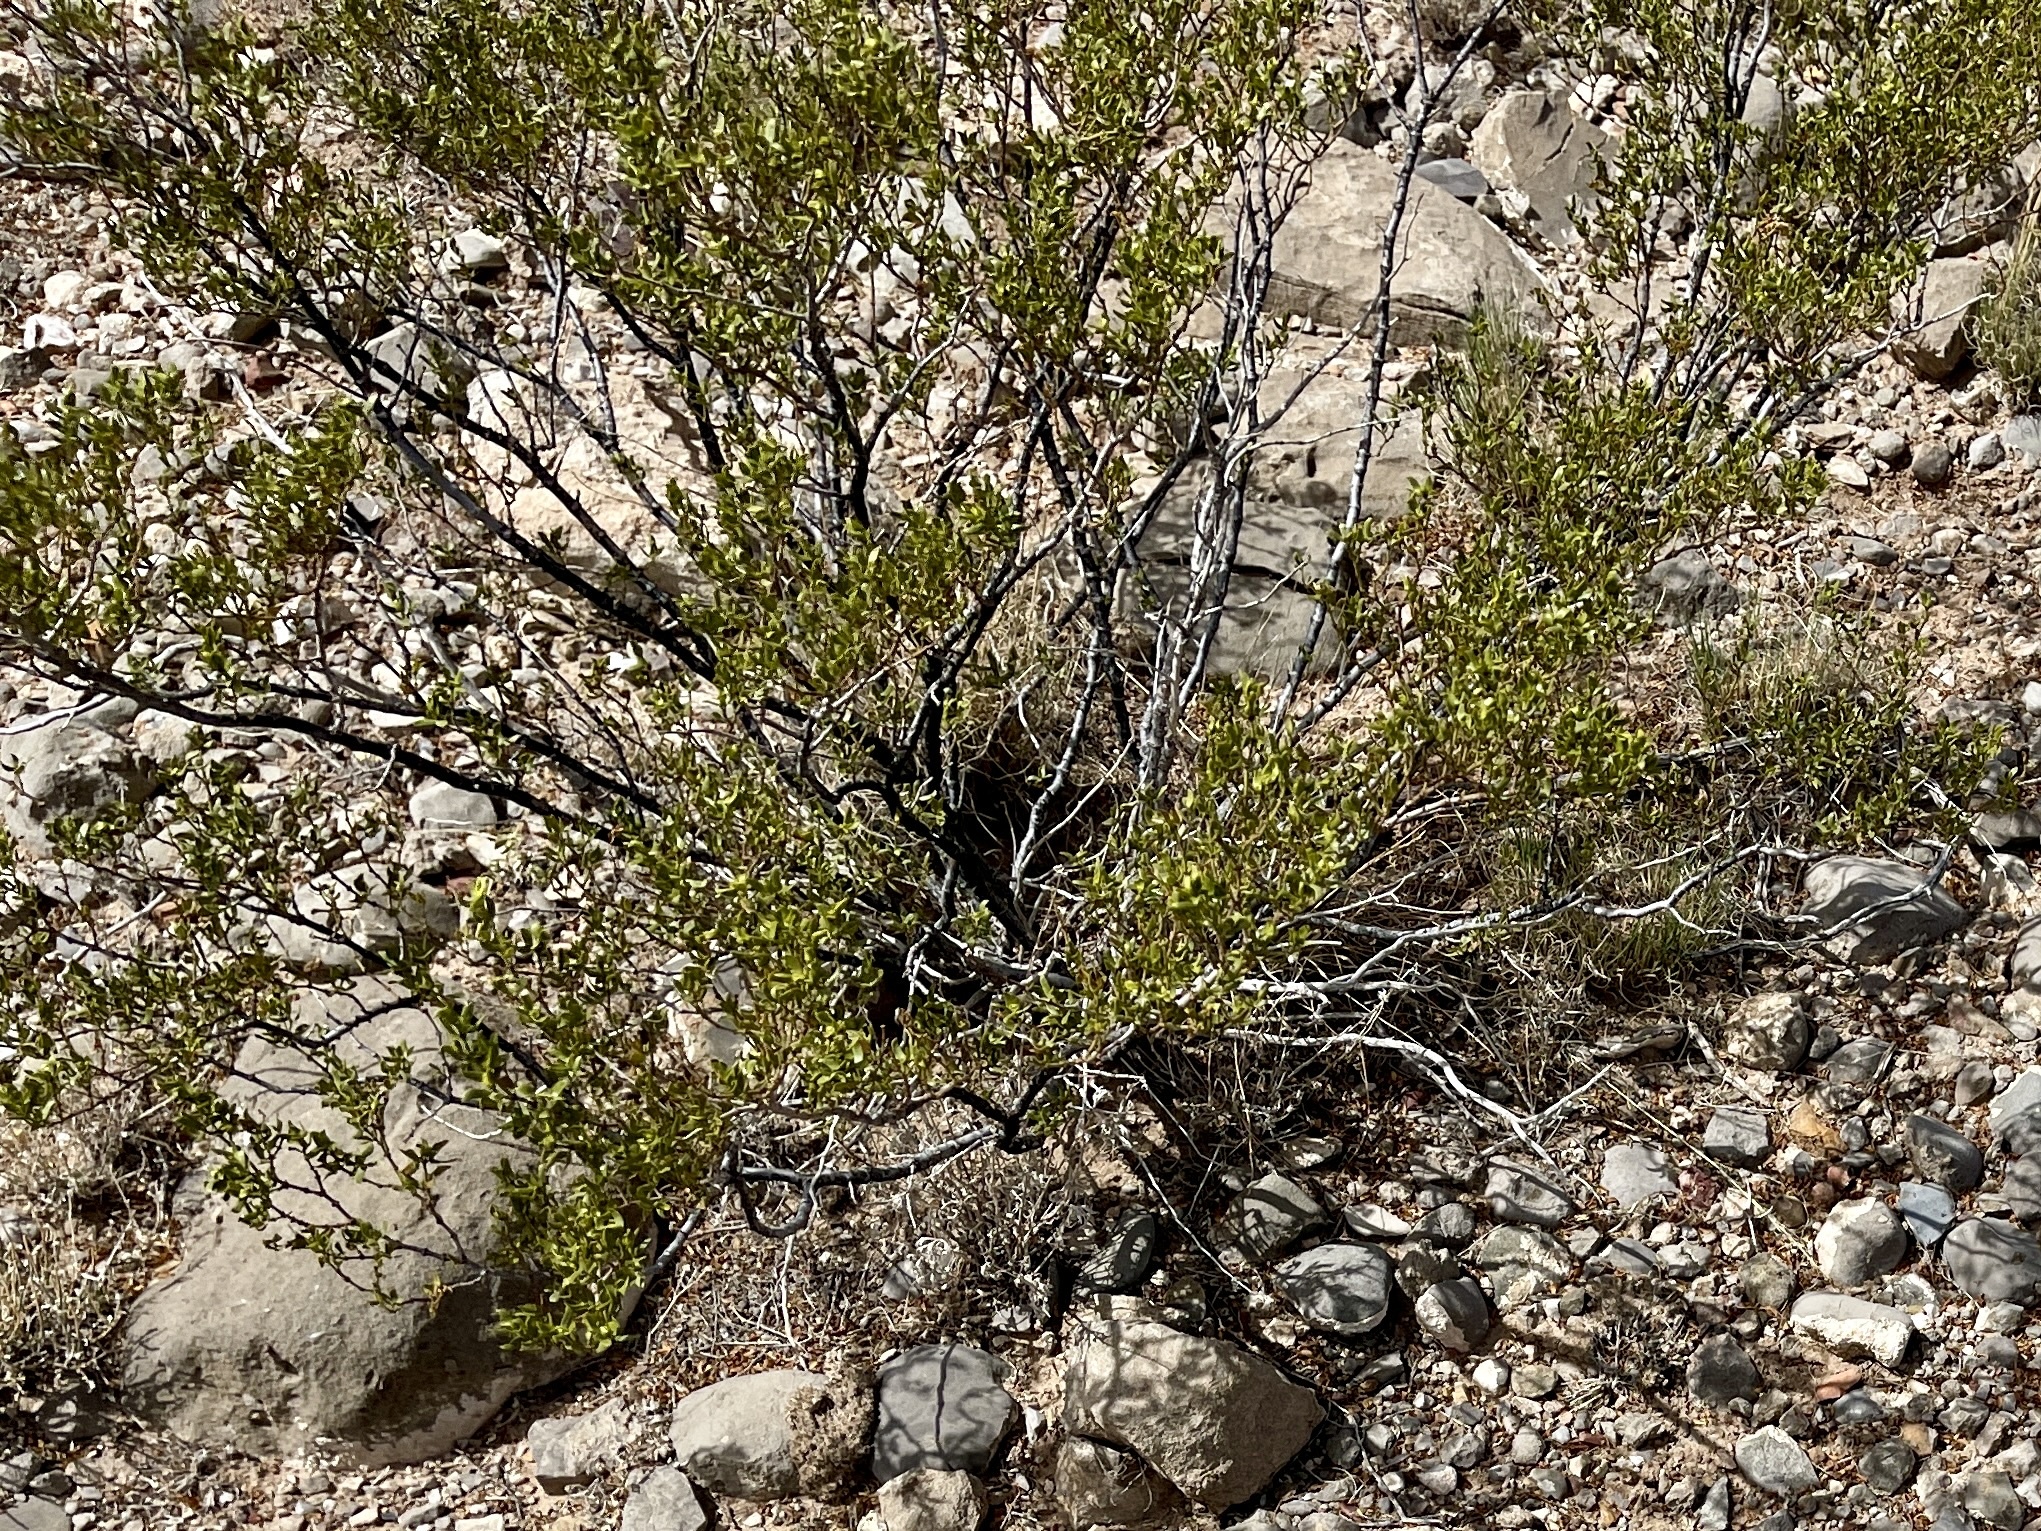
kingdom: Plantae
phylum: Tracheophyta
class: Magnoliopsida
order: Zygophyllales
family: Zygophyllaceae
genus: Larrea
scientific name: Larrea tridentata
